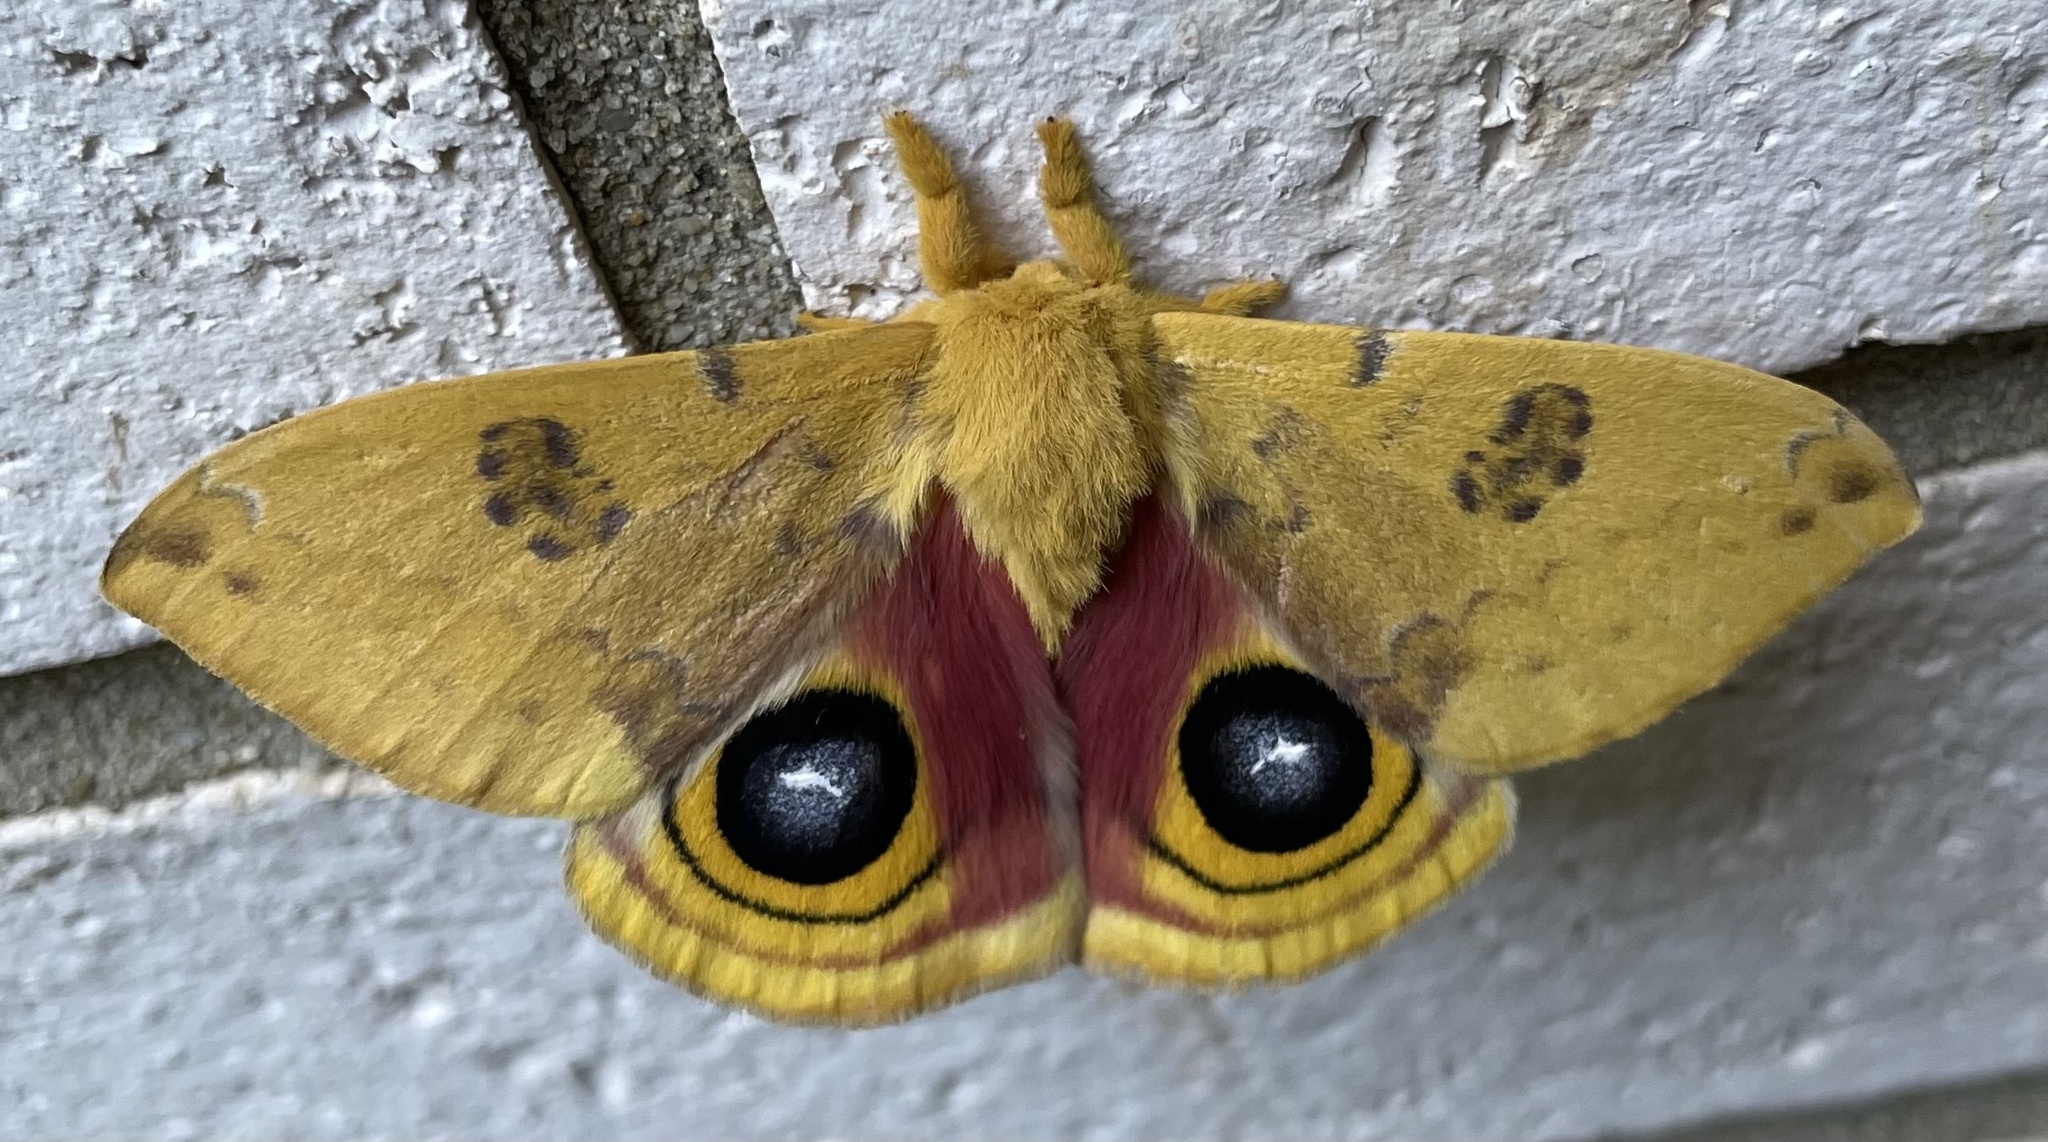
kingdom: Animalia
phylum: Arthropoda
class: Insecta
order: Lepidoptera
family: Saturniidae
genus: Automeris
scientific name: Automeris io
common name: Io moth
